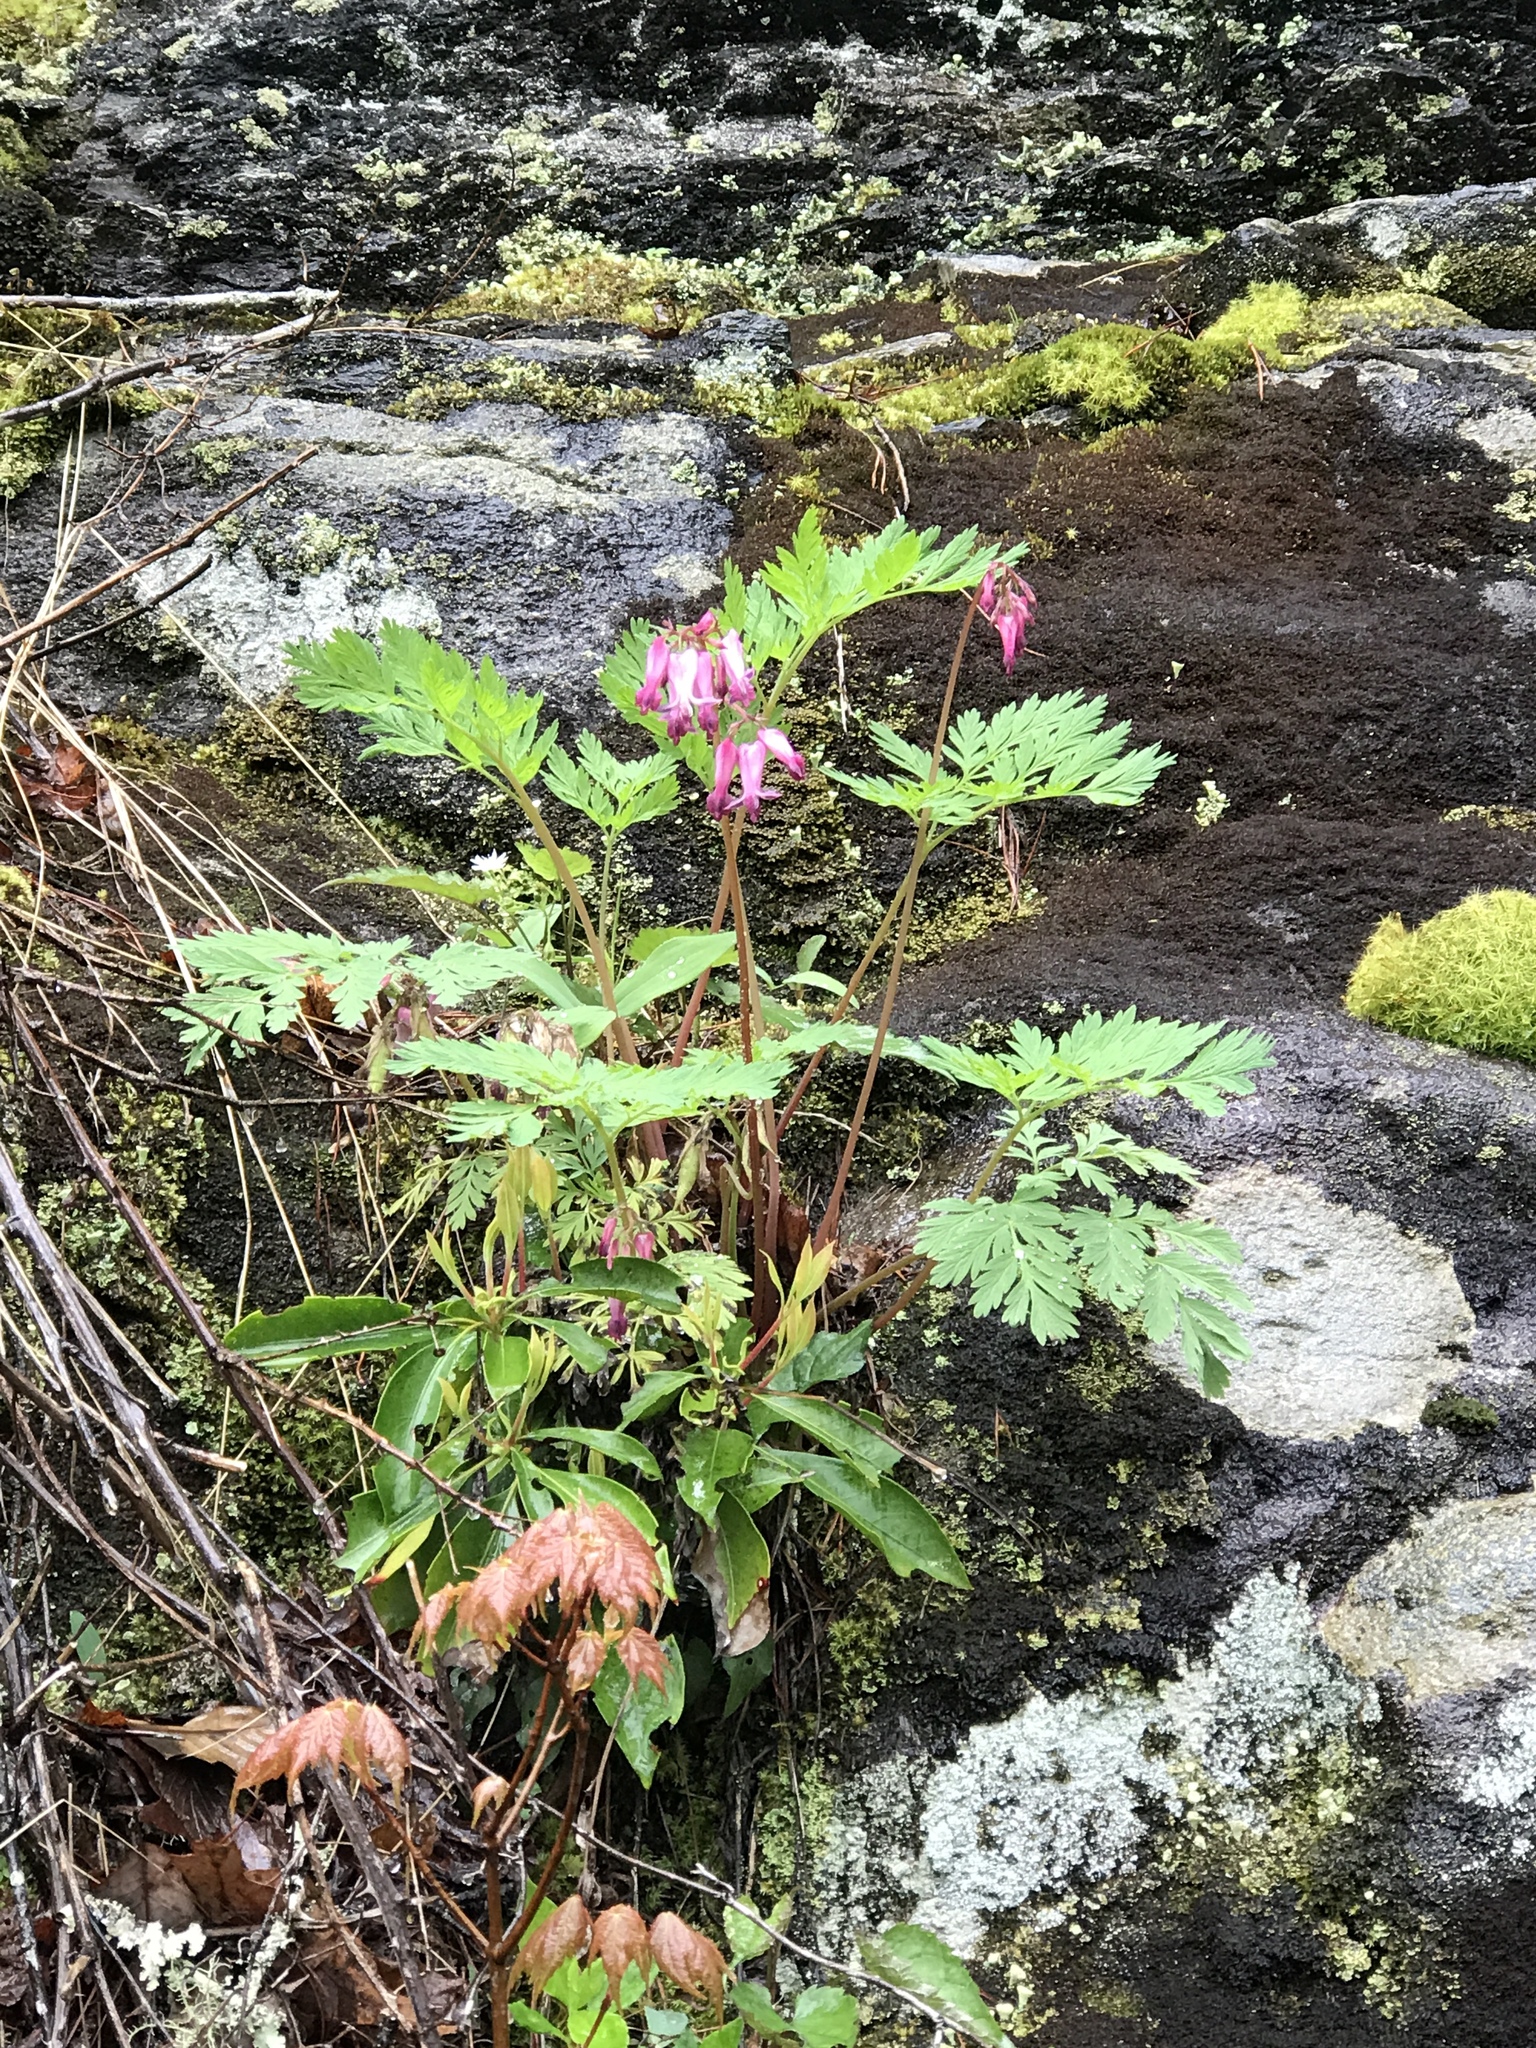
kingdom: Plantae
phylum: Tracheophyta
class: Magnoliopsida
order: Ranunculales
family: Papaveraceae
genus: Dicentra
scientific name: Dicentra eximia
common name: Turkey-corn
